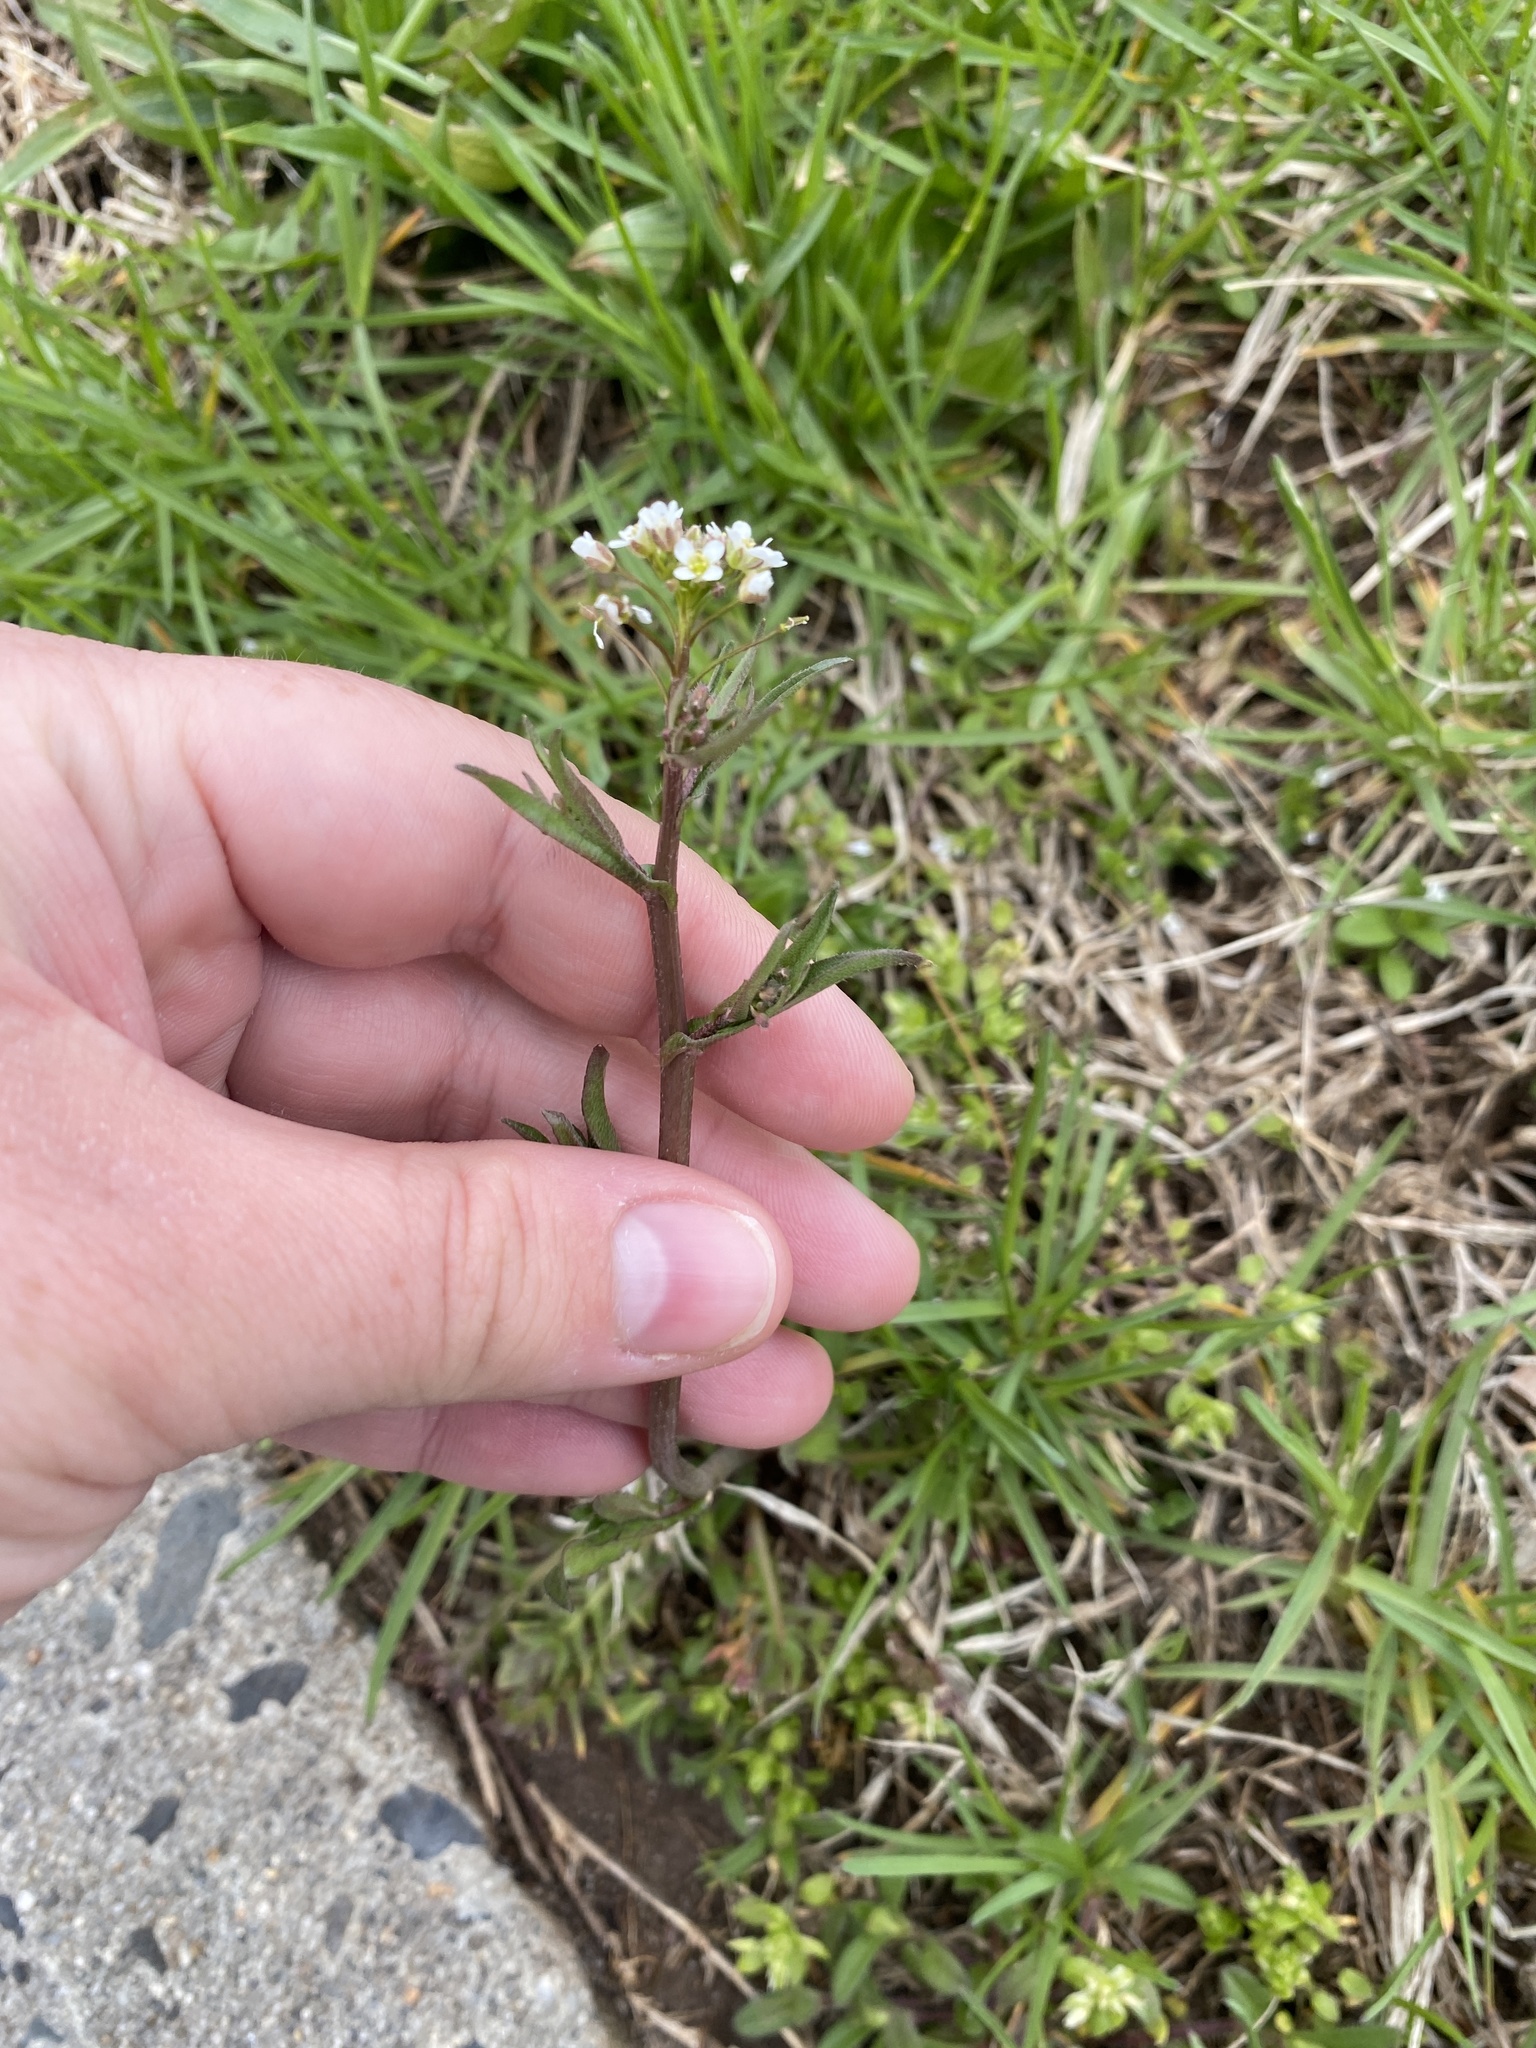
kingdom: Plantae
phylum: Tracheophyta
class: Magnoliopsida
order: Brassicales
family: Brassicaceae
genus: Capsella
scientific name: Capsella bursa-pastoris
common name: Shepherd's purse
